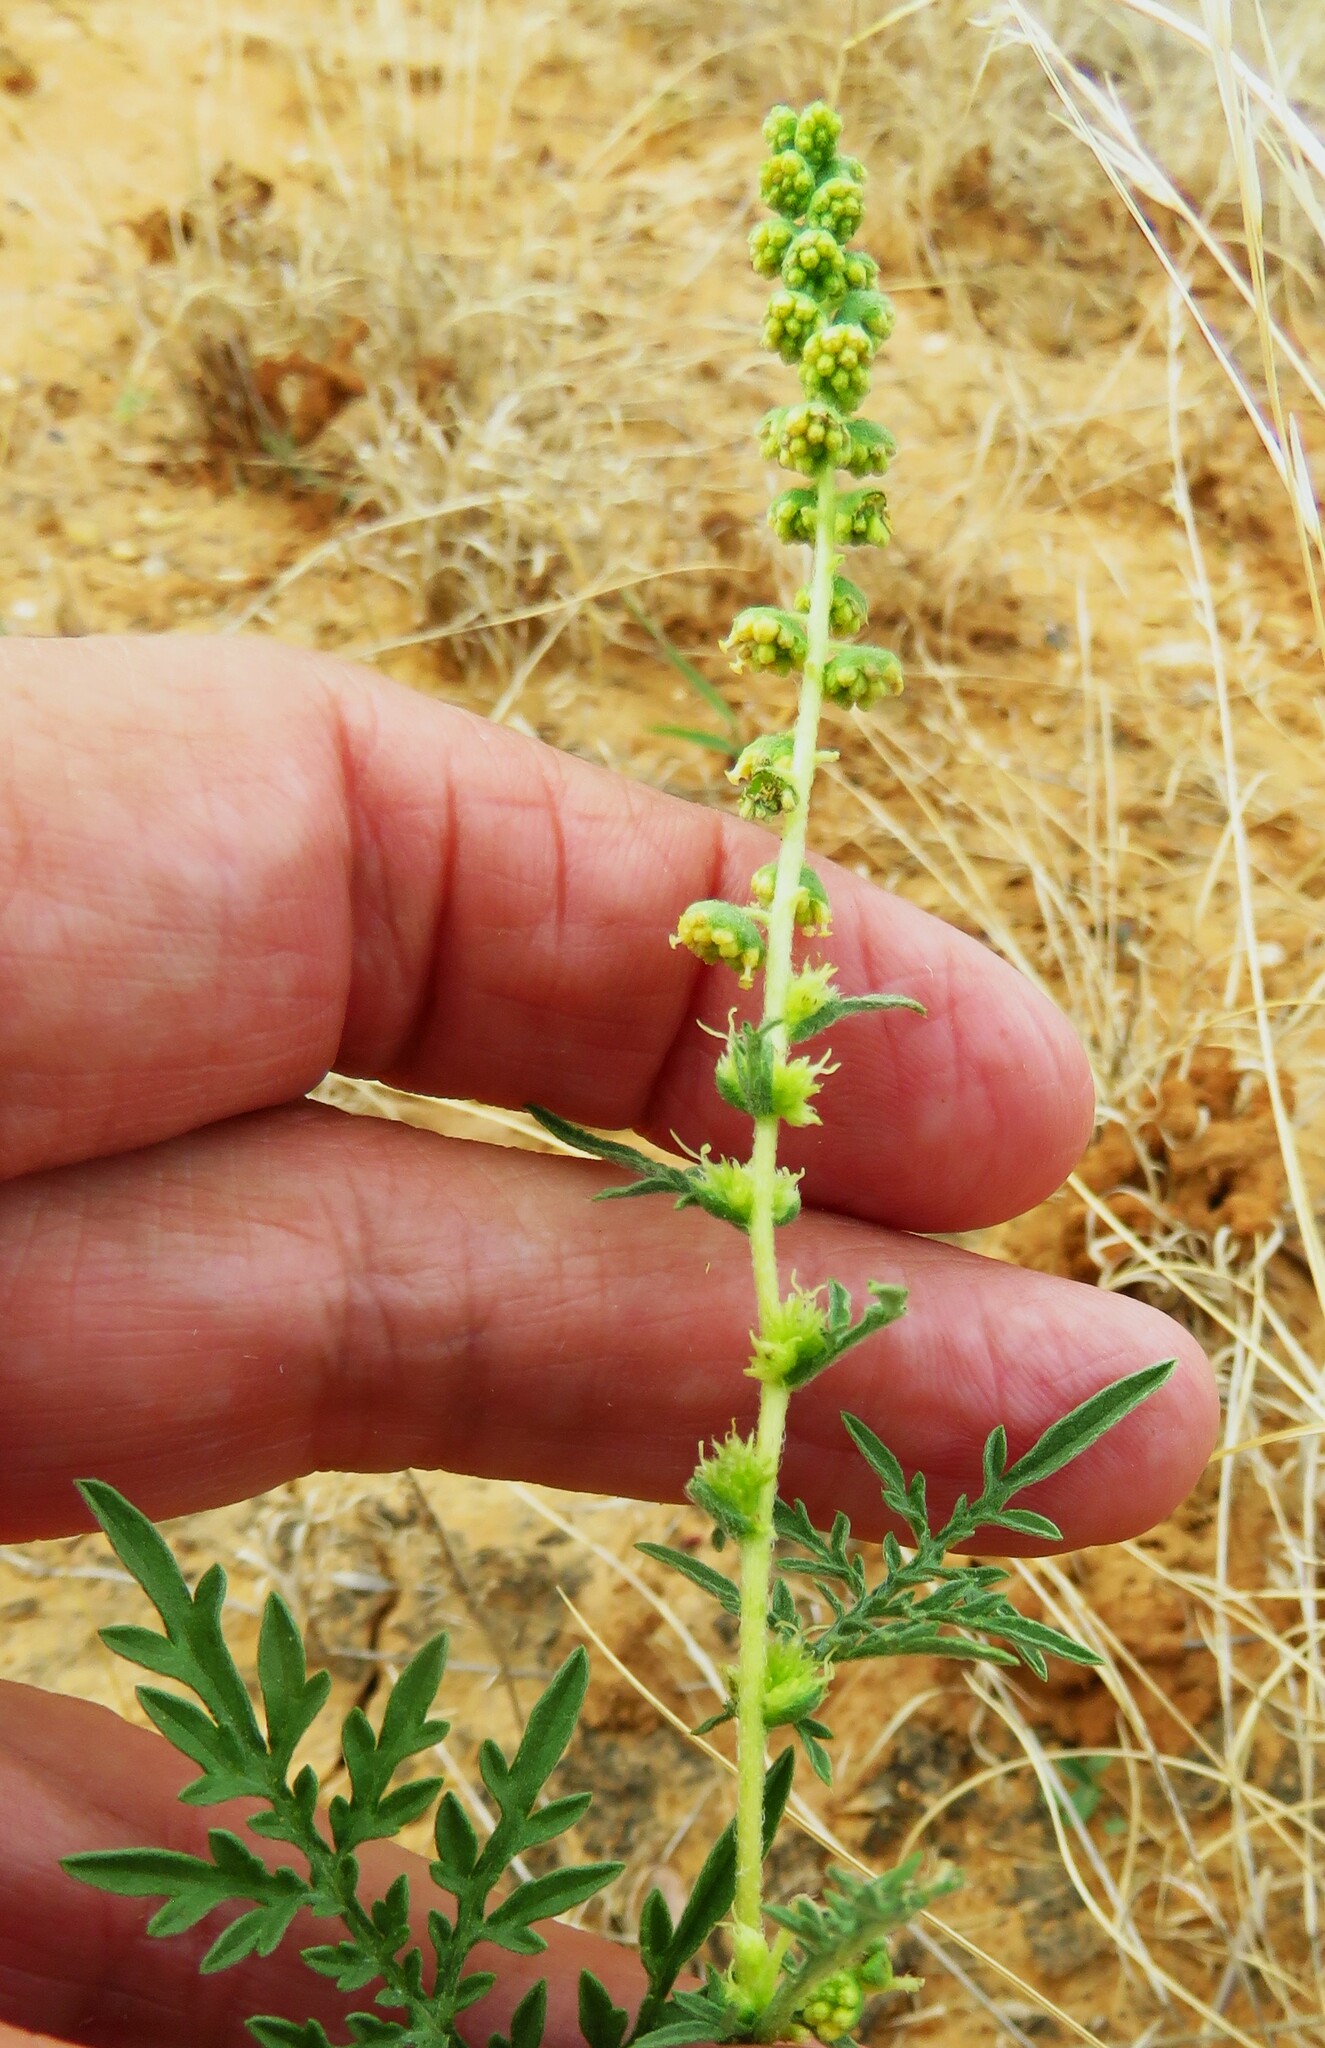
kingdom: Plantae
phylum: Tracheophyta
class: Magnoliopsida
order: Asterales
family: Asteraceae
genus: Ambrosia
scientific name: Ambrosia artemisiifolia
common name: Annual ragweed
